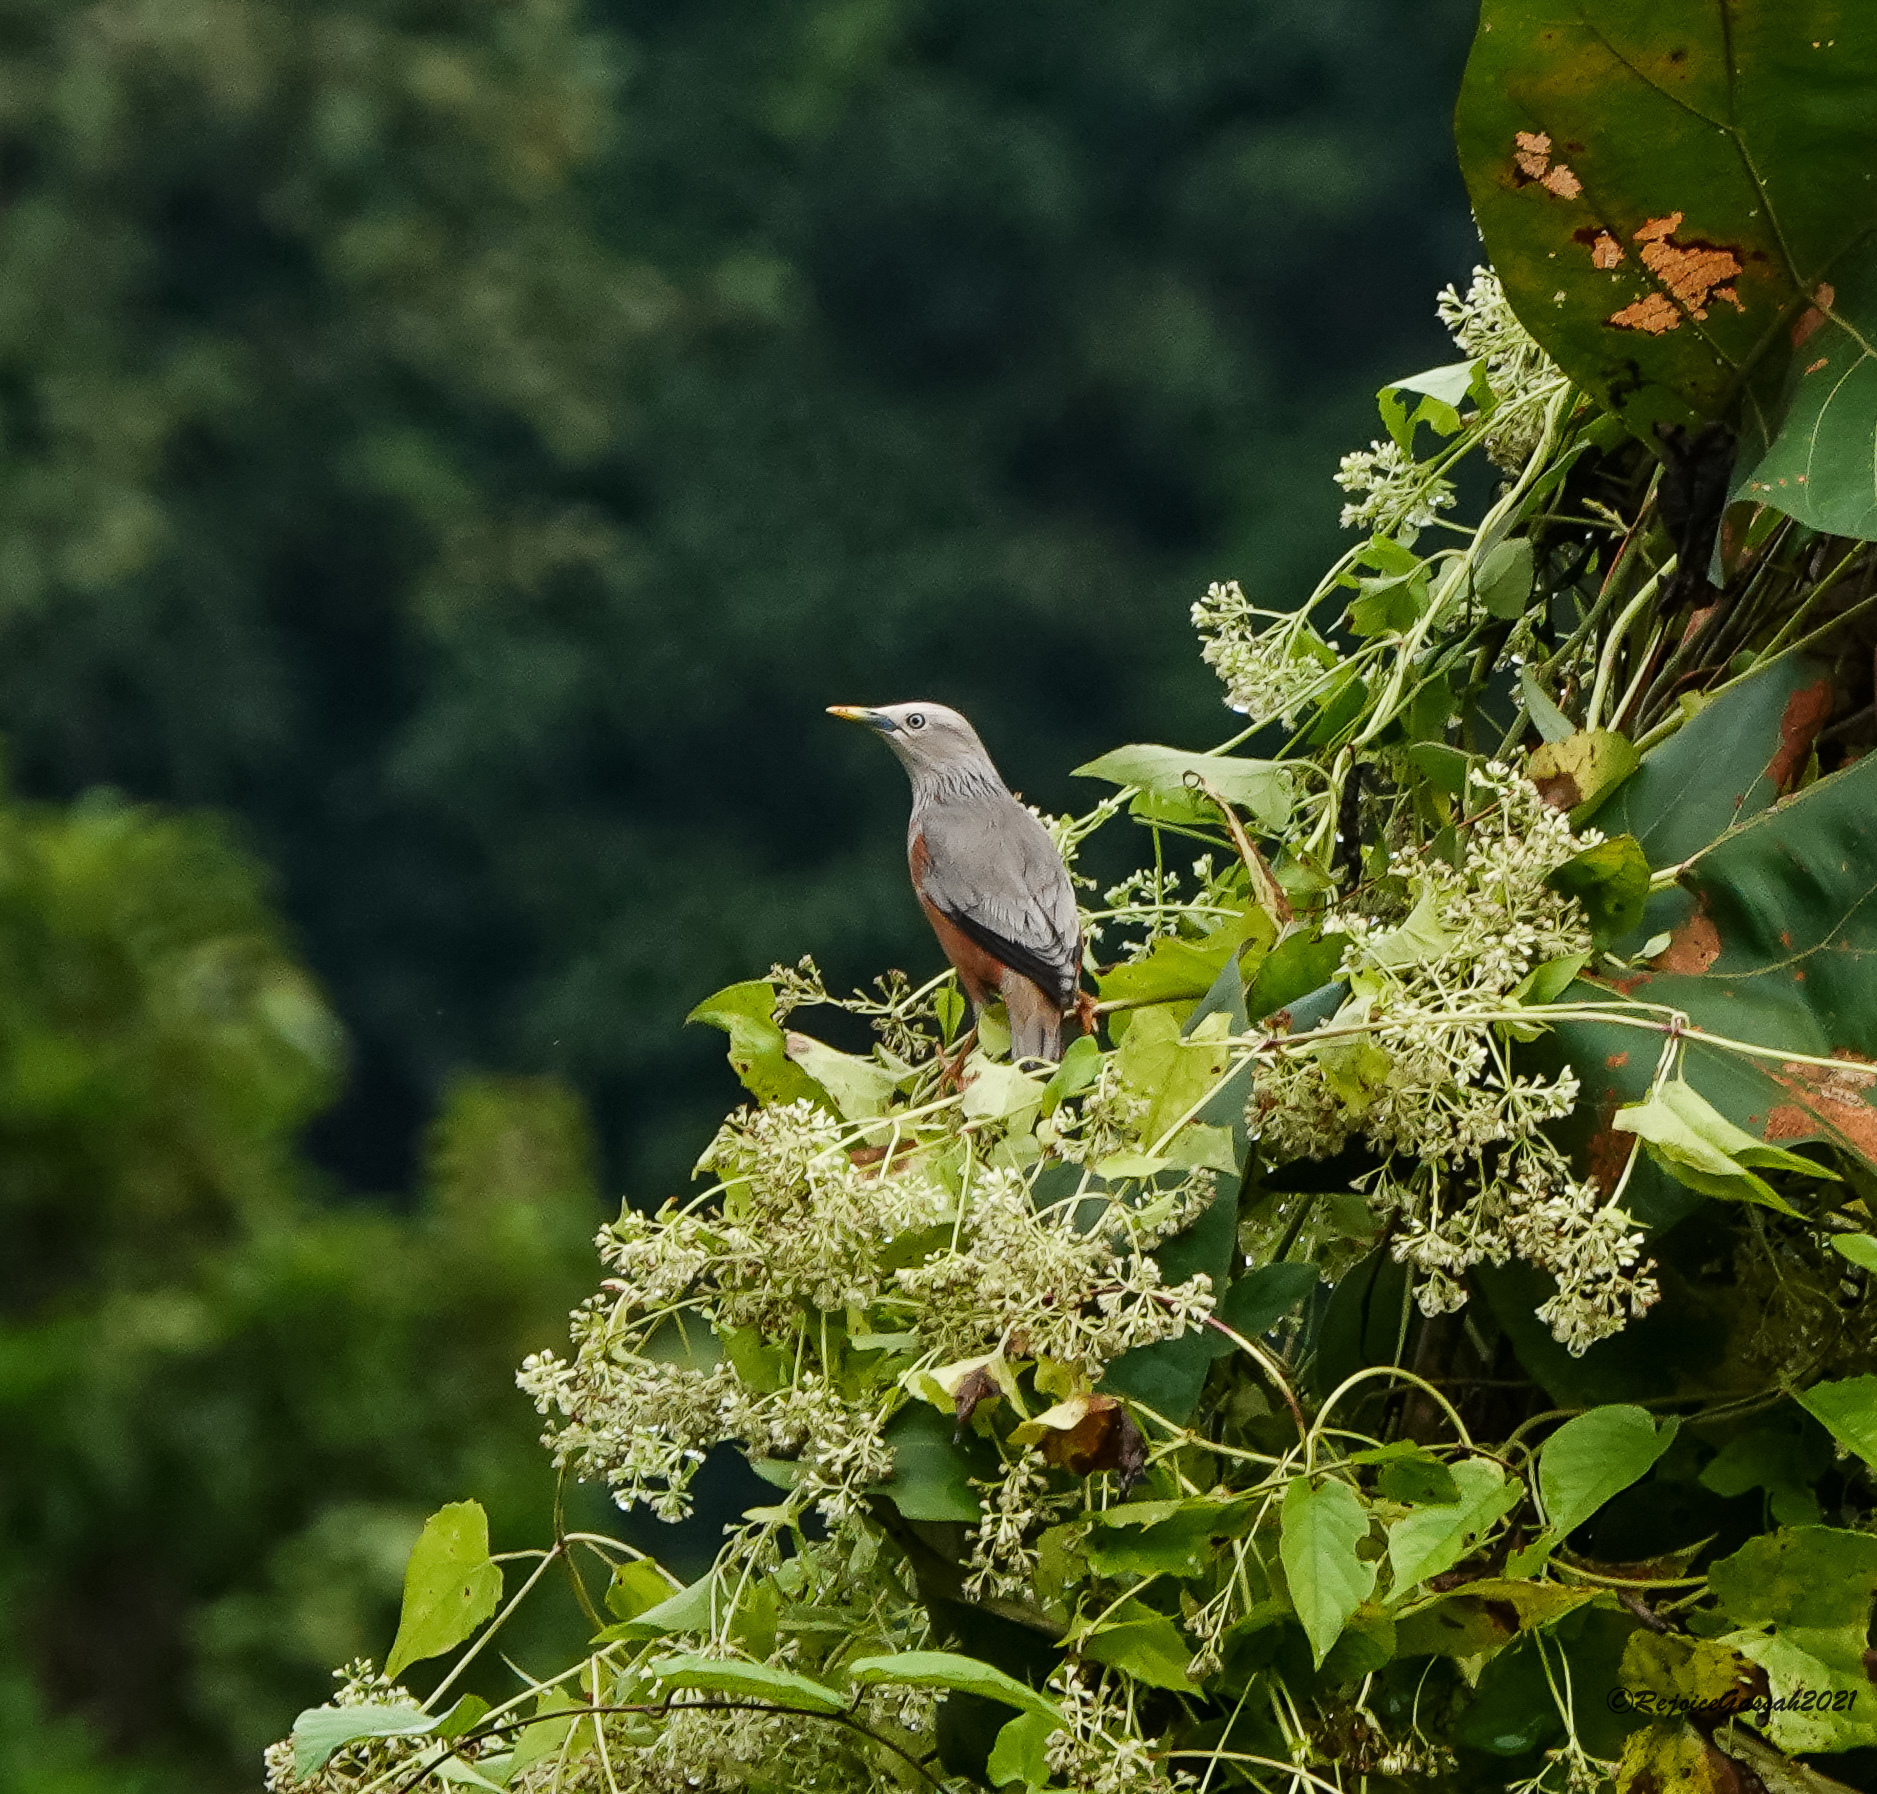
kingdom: Animalia
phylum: Chordata
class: Aves
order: Passeriformes
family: Sturnidae
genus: Sturnia
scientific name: Sturnia malabarica
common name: Chestnut-tailed starling
